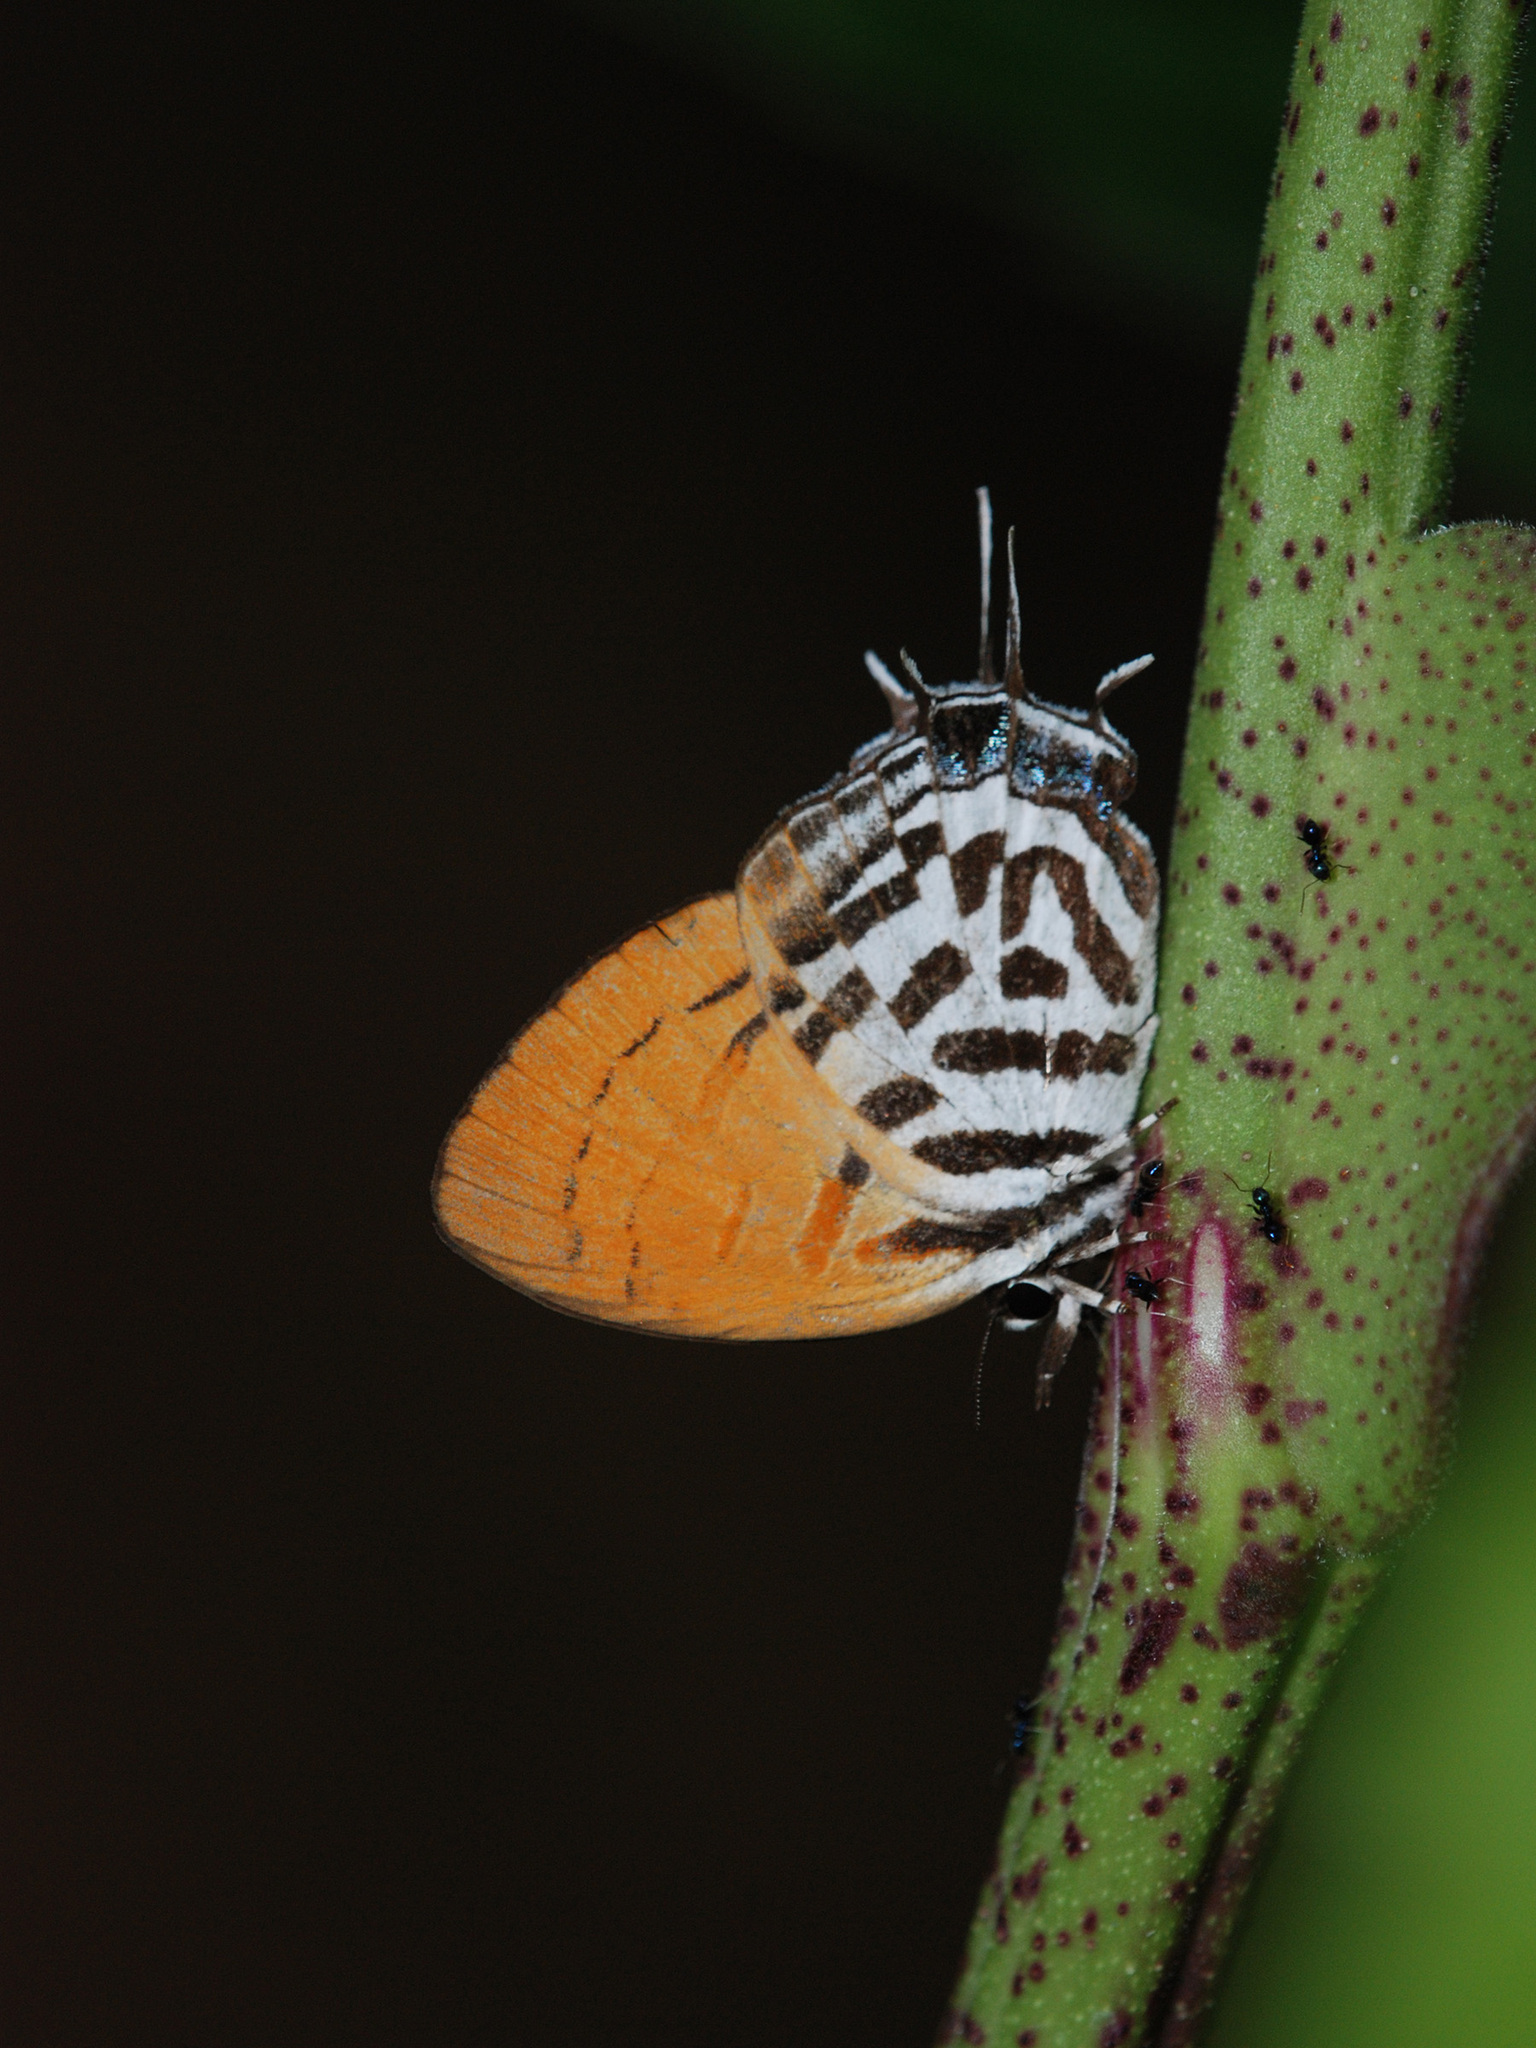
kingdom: Animalia
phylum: Arthropoda
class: Insecta
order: Lepidoptera
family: Lycaenidae
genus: Drupadia
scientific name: Drupadia ravindra
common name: Common posy
